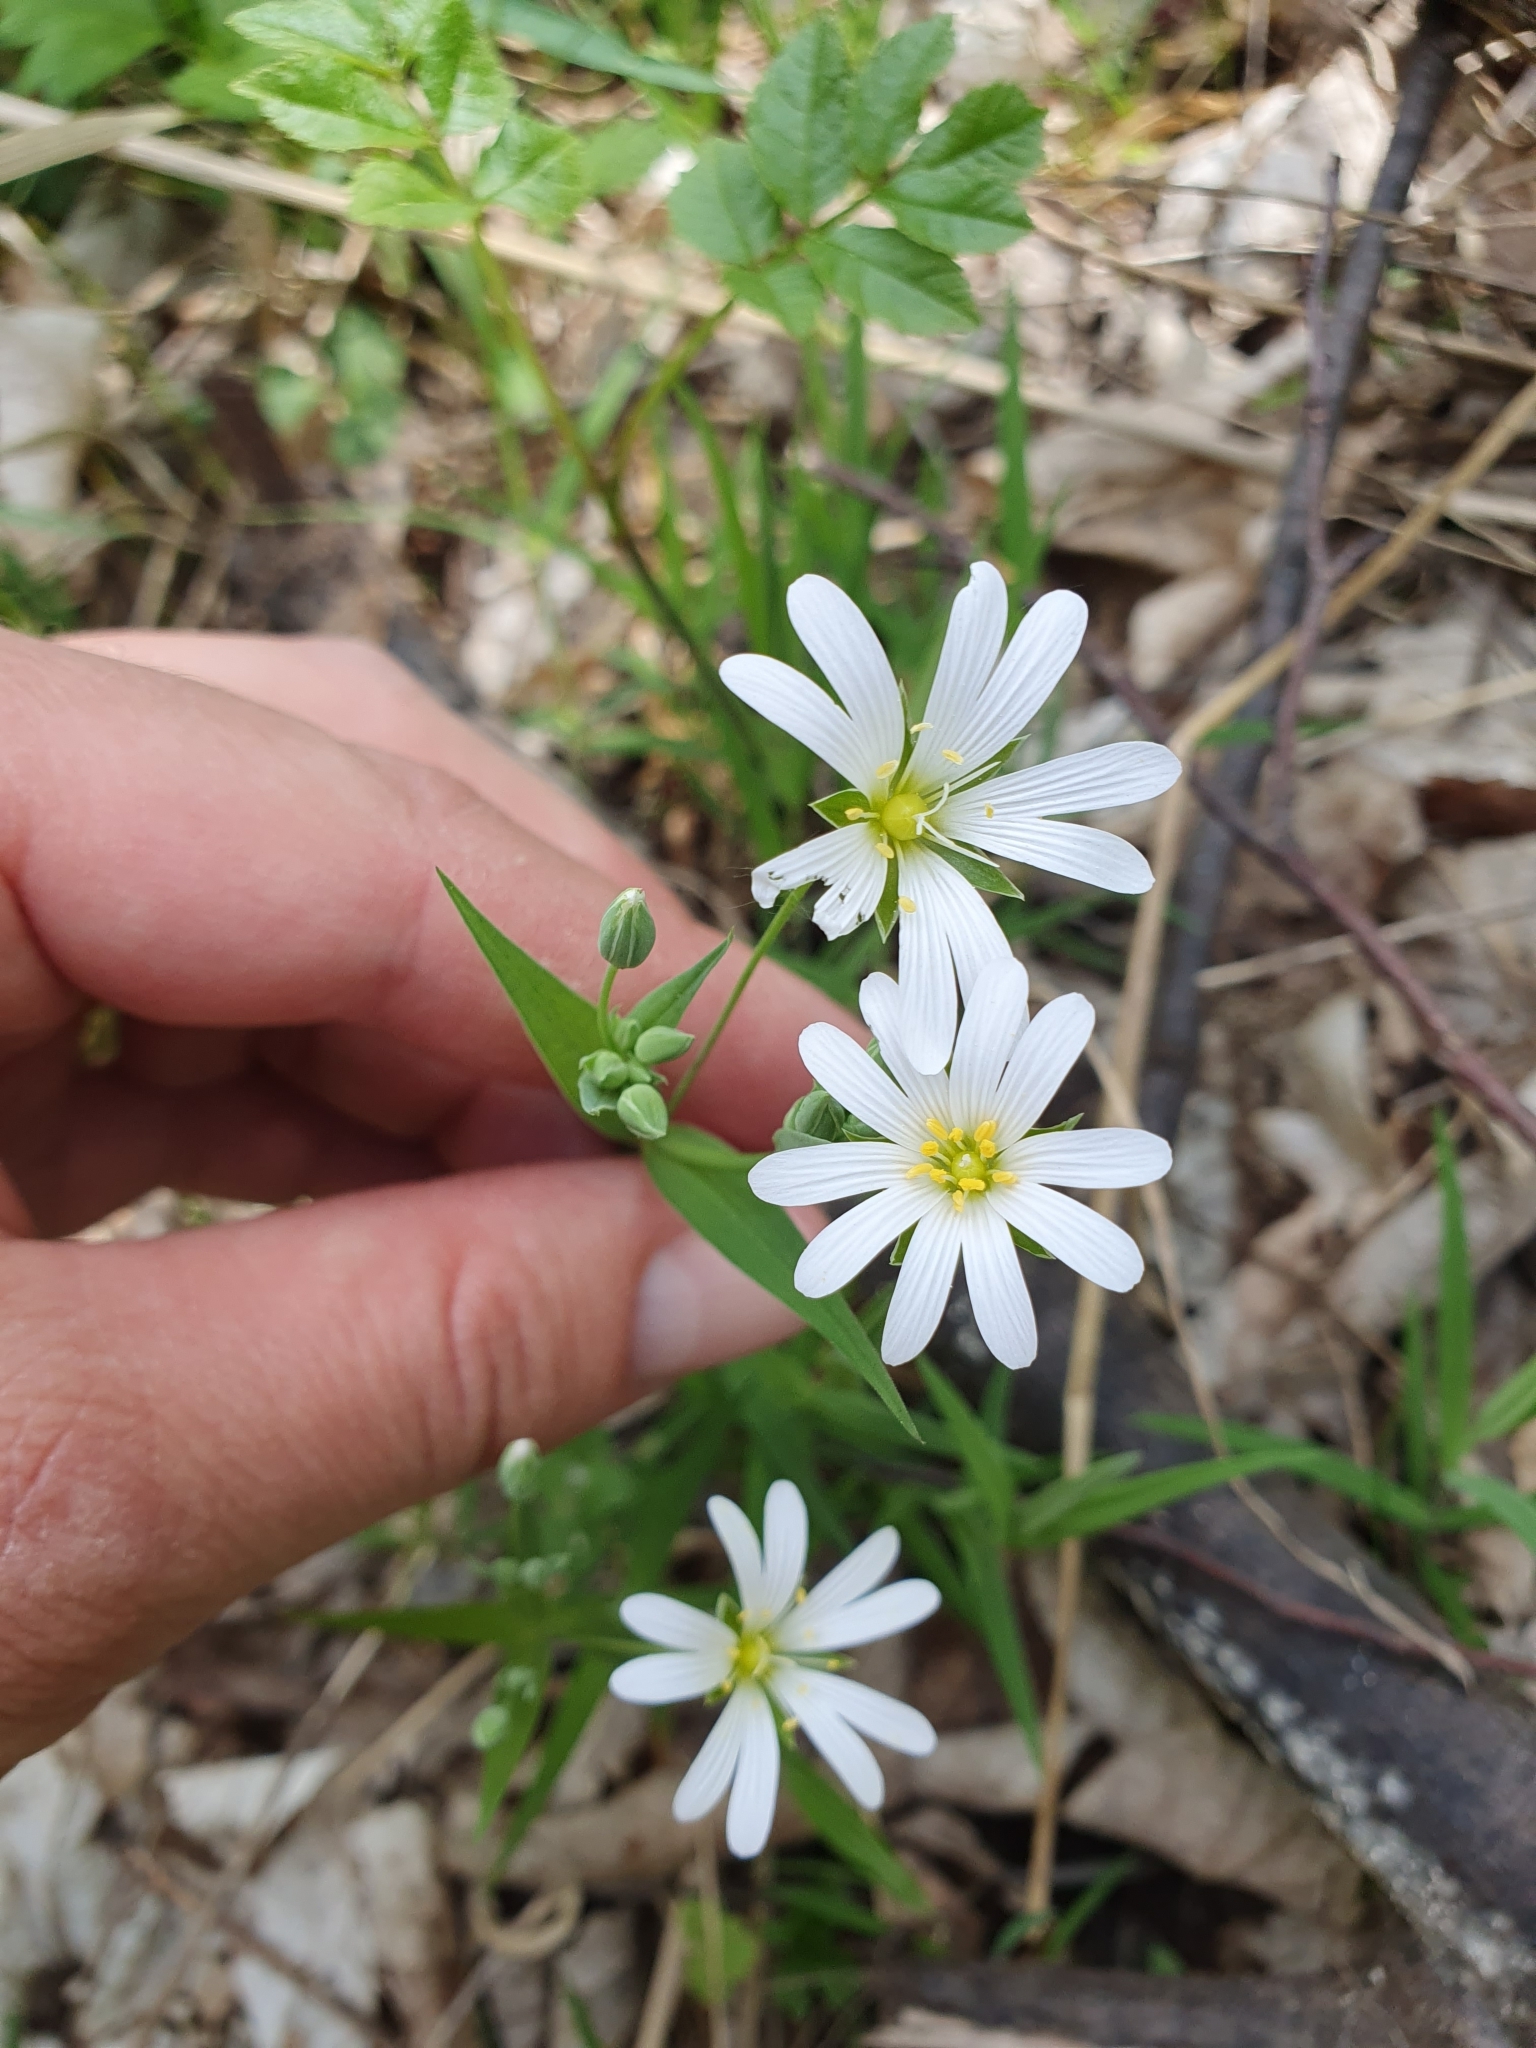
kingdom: Plantae
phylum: Tracheophyta
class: Magnoliopsida
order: Caryophyllales
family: Caryophyllaceae
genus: Rabelera
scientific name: Rabelera holostea
